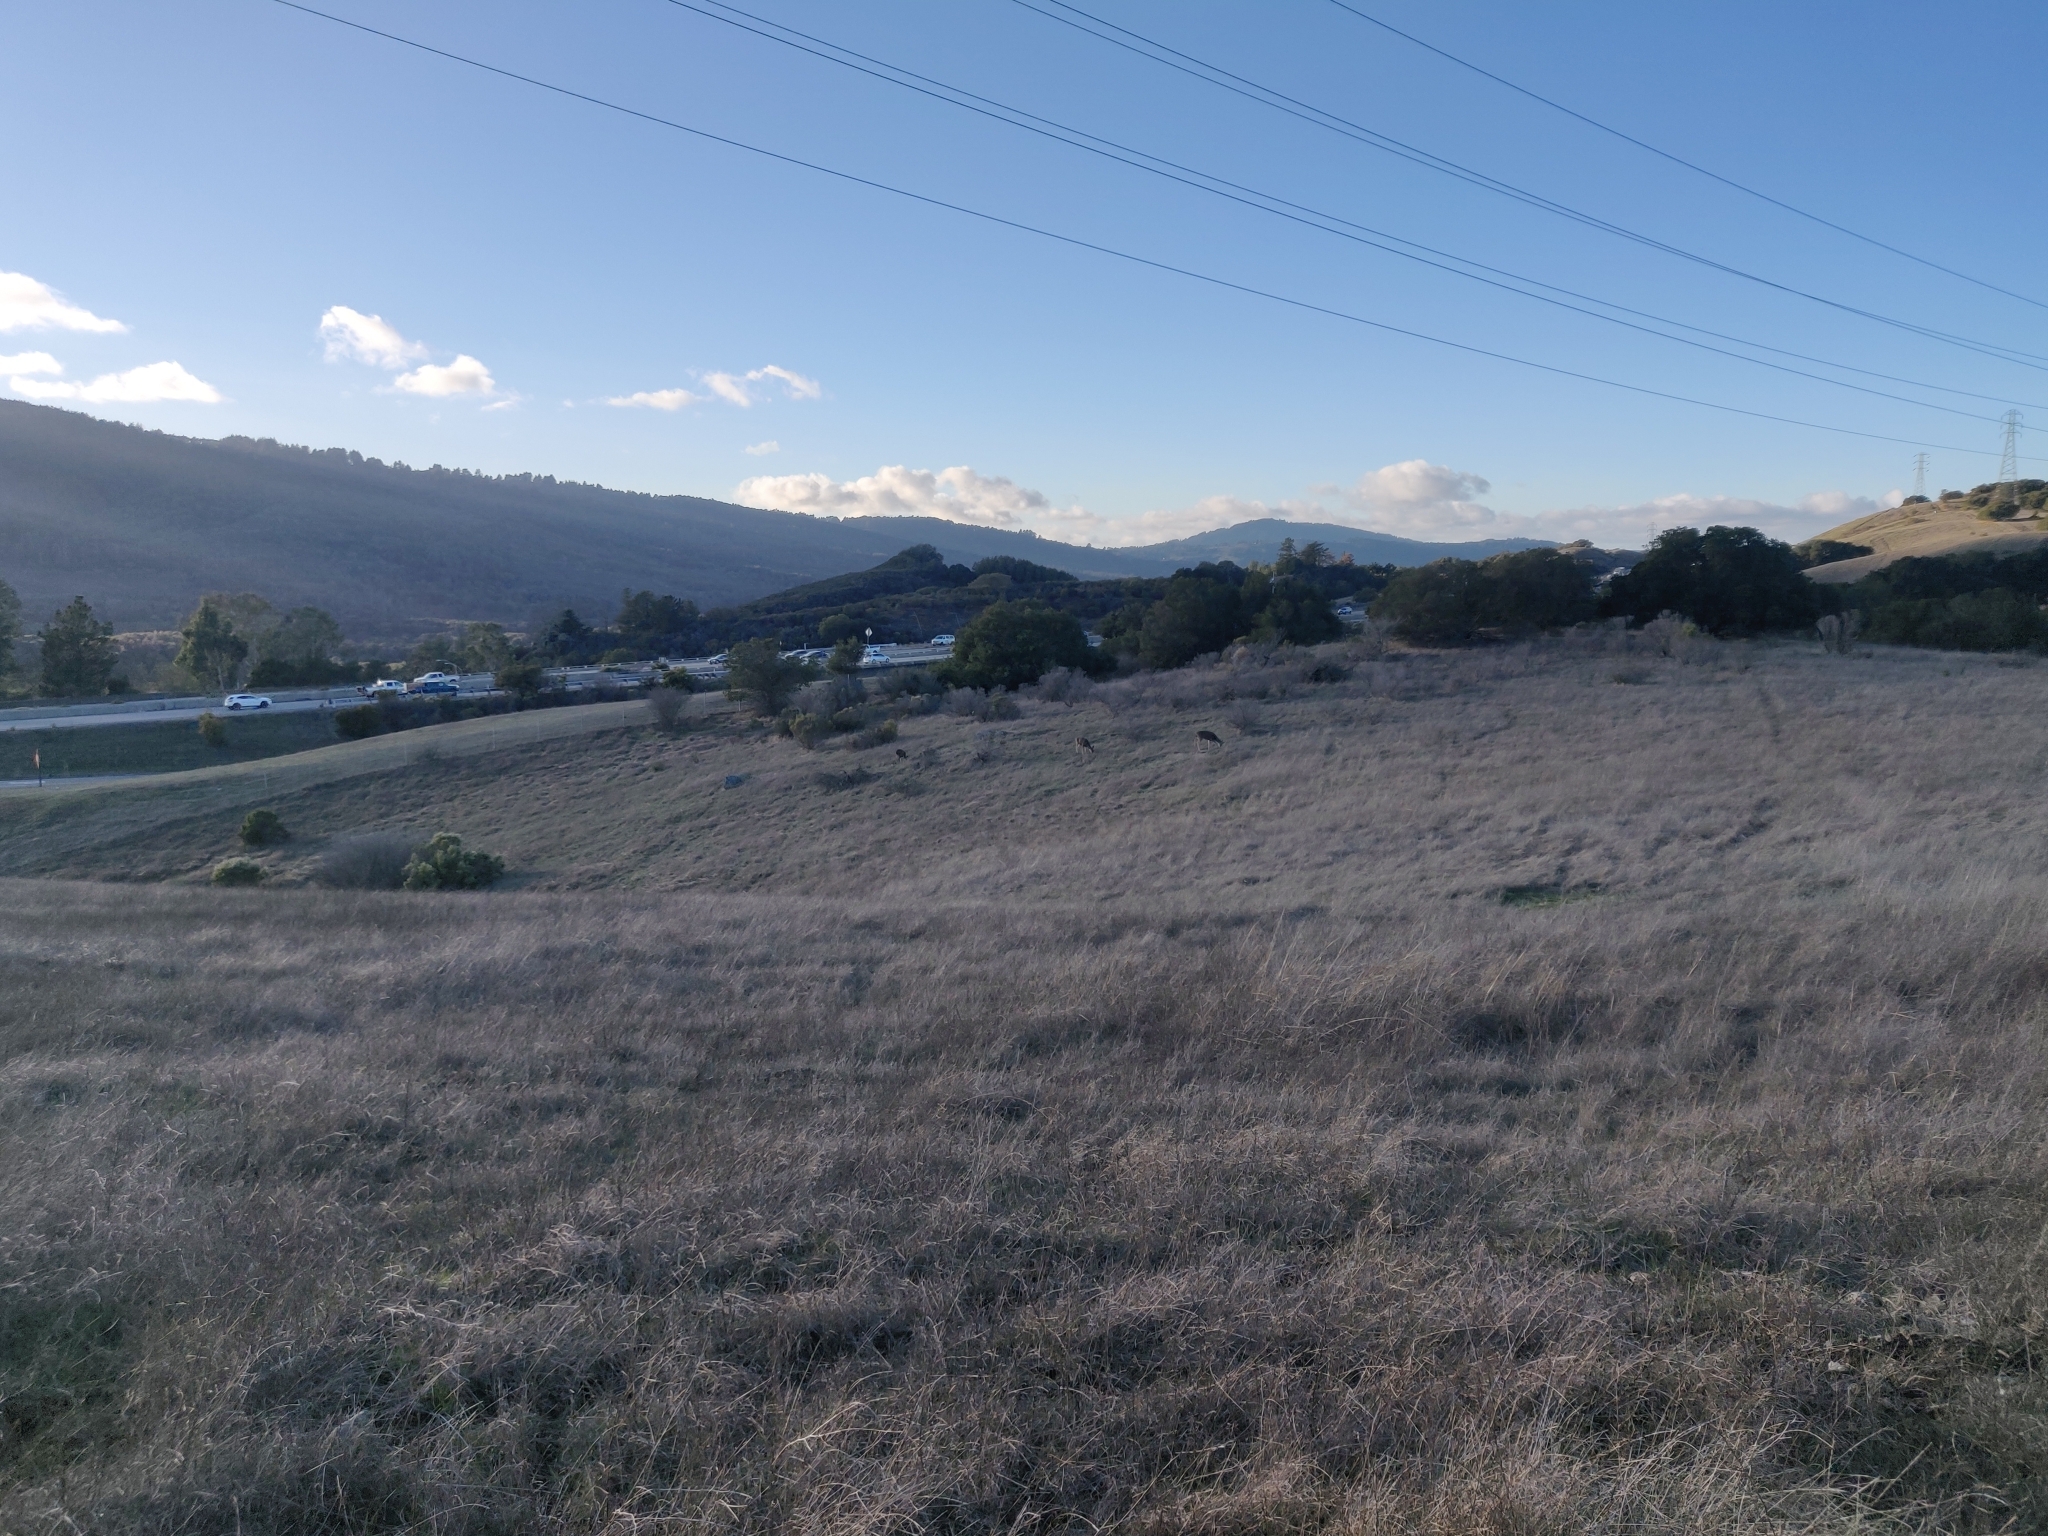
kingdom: Animalia
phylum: Chordata
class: Mammalia
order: Artiodactyla
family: Cervidae
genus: Odocoileus
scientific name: Odocoileus hemionus
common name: Mule deer
